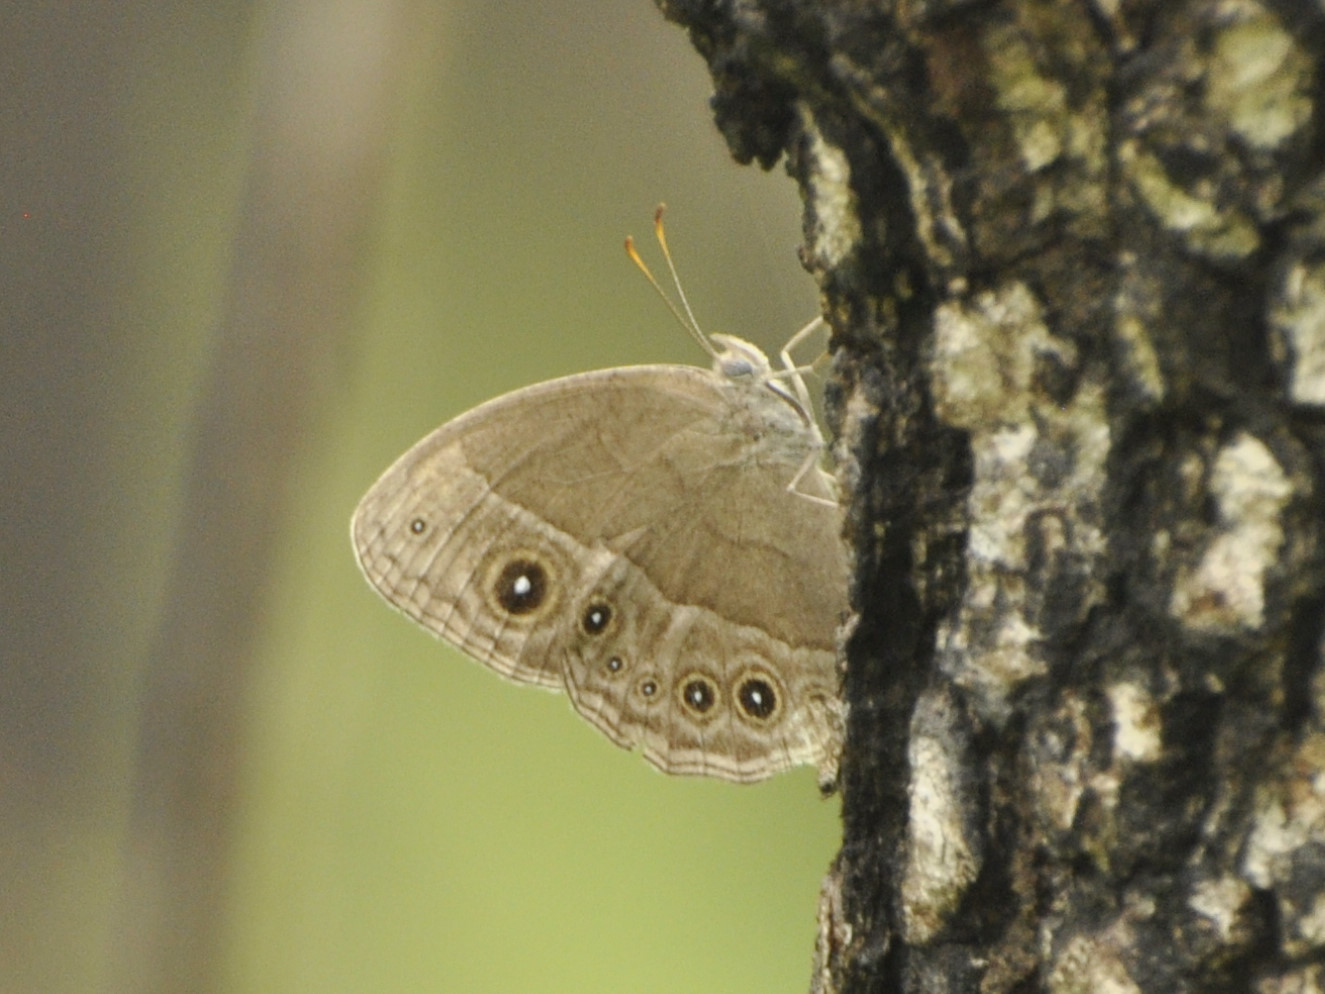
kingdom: Animalia
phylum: Arthropoda
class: Insecta
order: Lepidoptera
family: Nymphalidae
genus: Bicyclus
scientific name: Bicyclus
